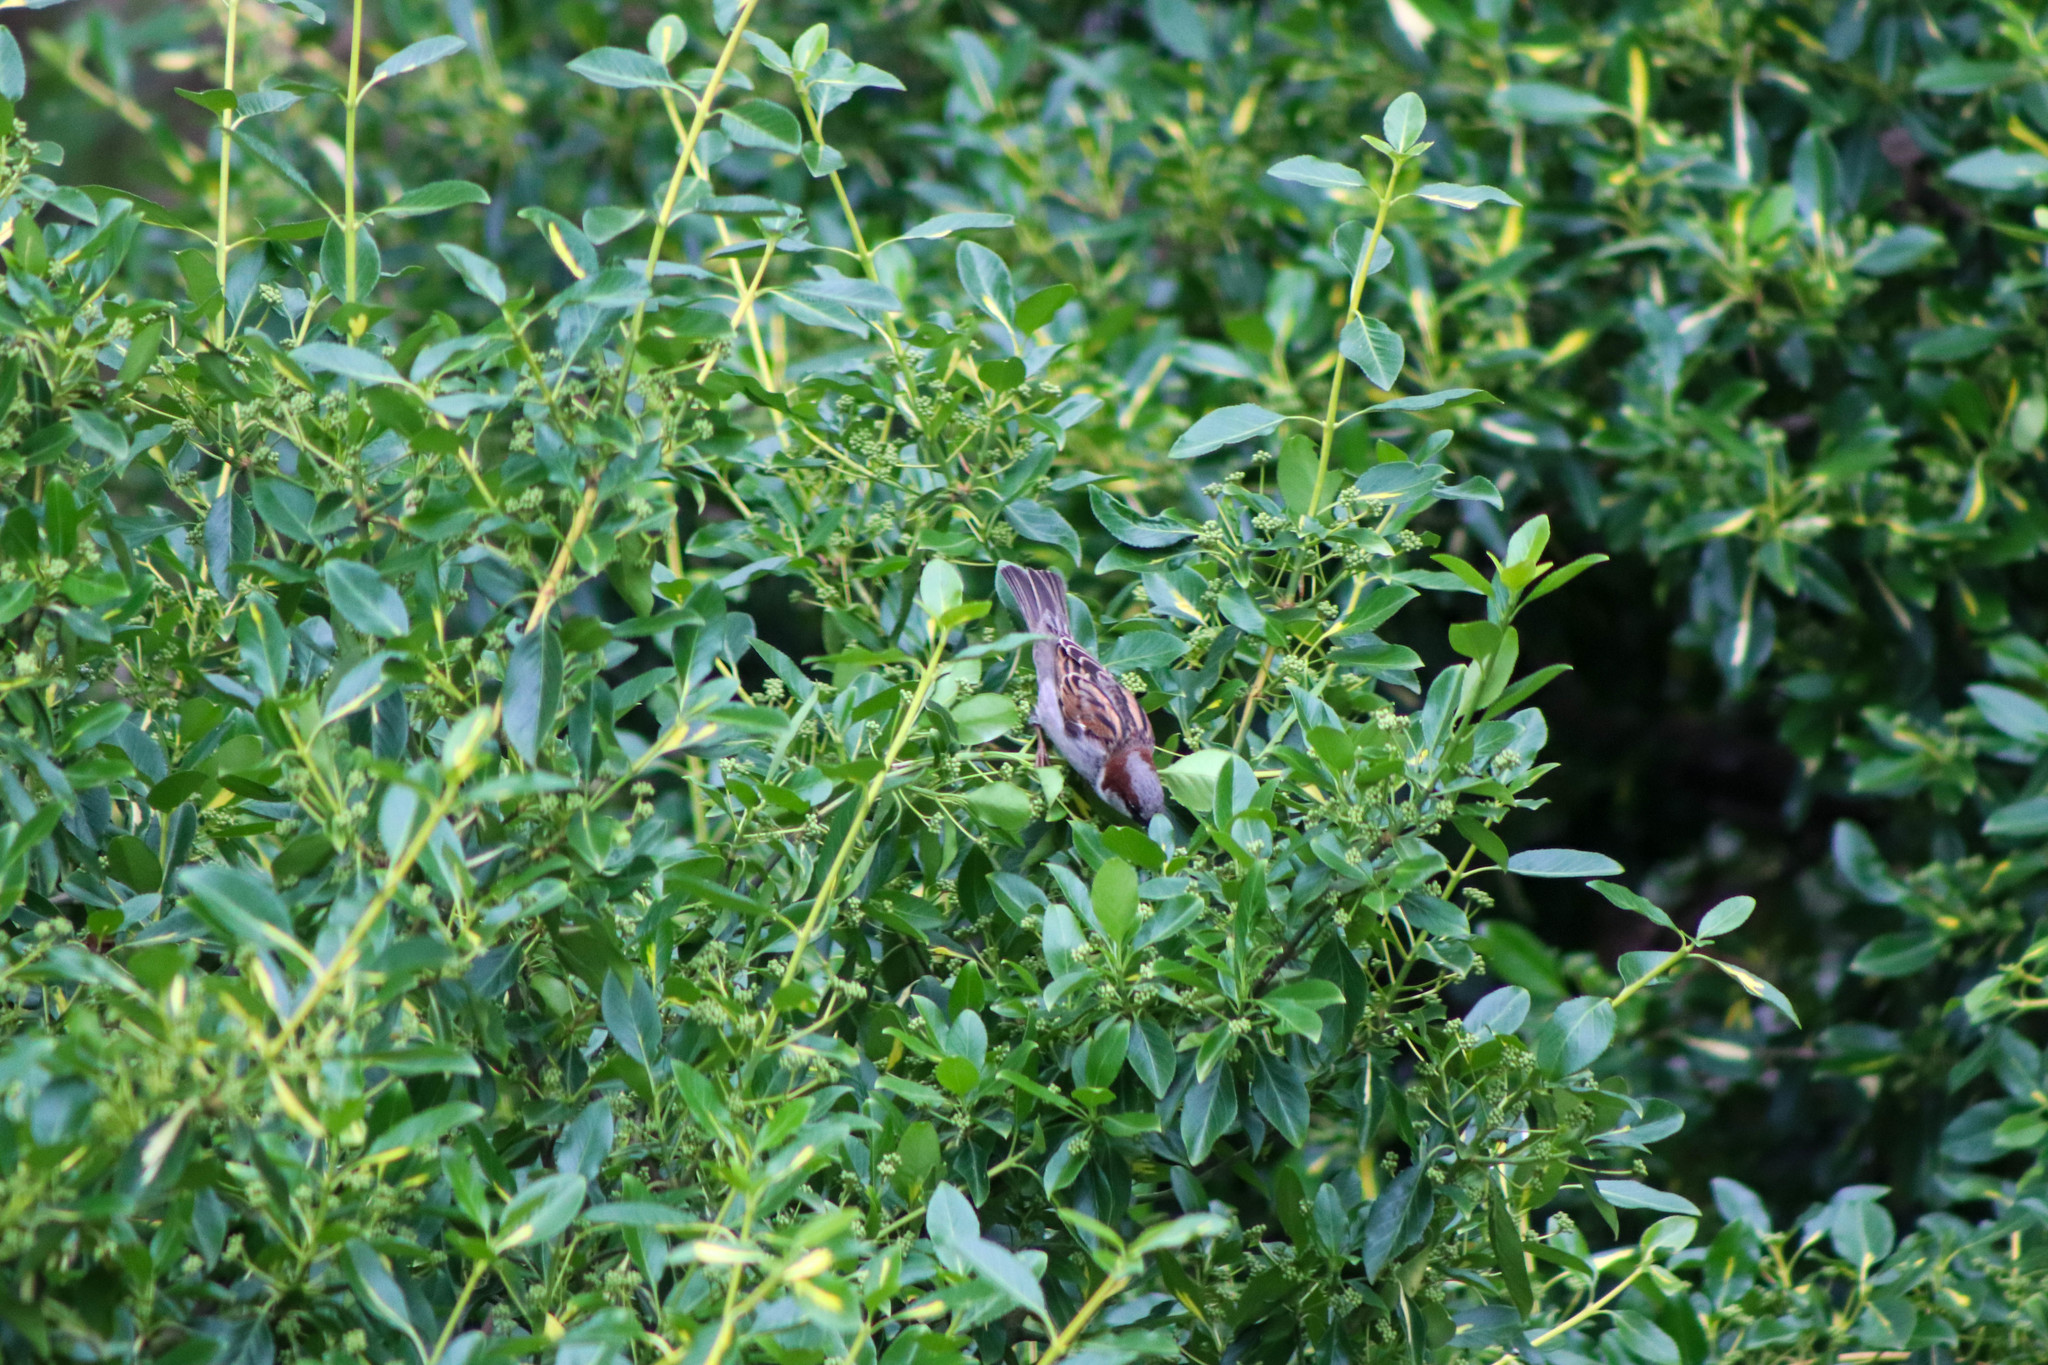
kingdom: Animalia
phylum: Chordata
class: Aves
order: Passeriformes
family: Passeridae
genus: Passer
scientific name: Passer domesticus
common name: House sparrow
